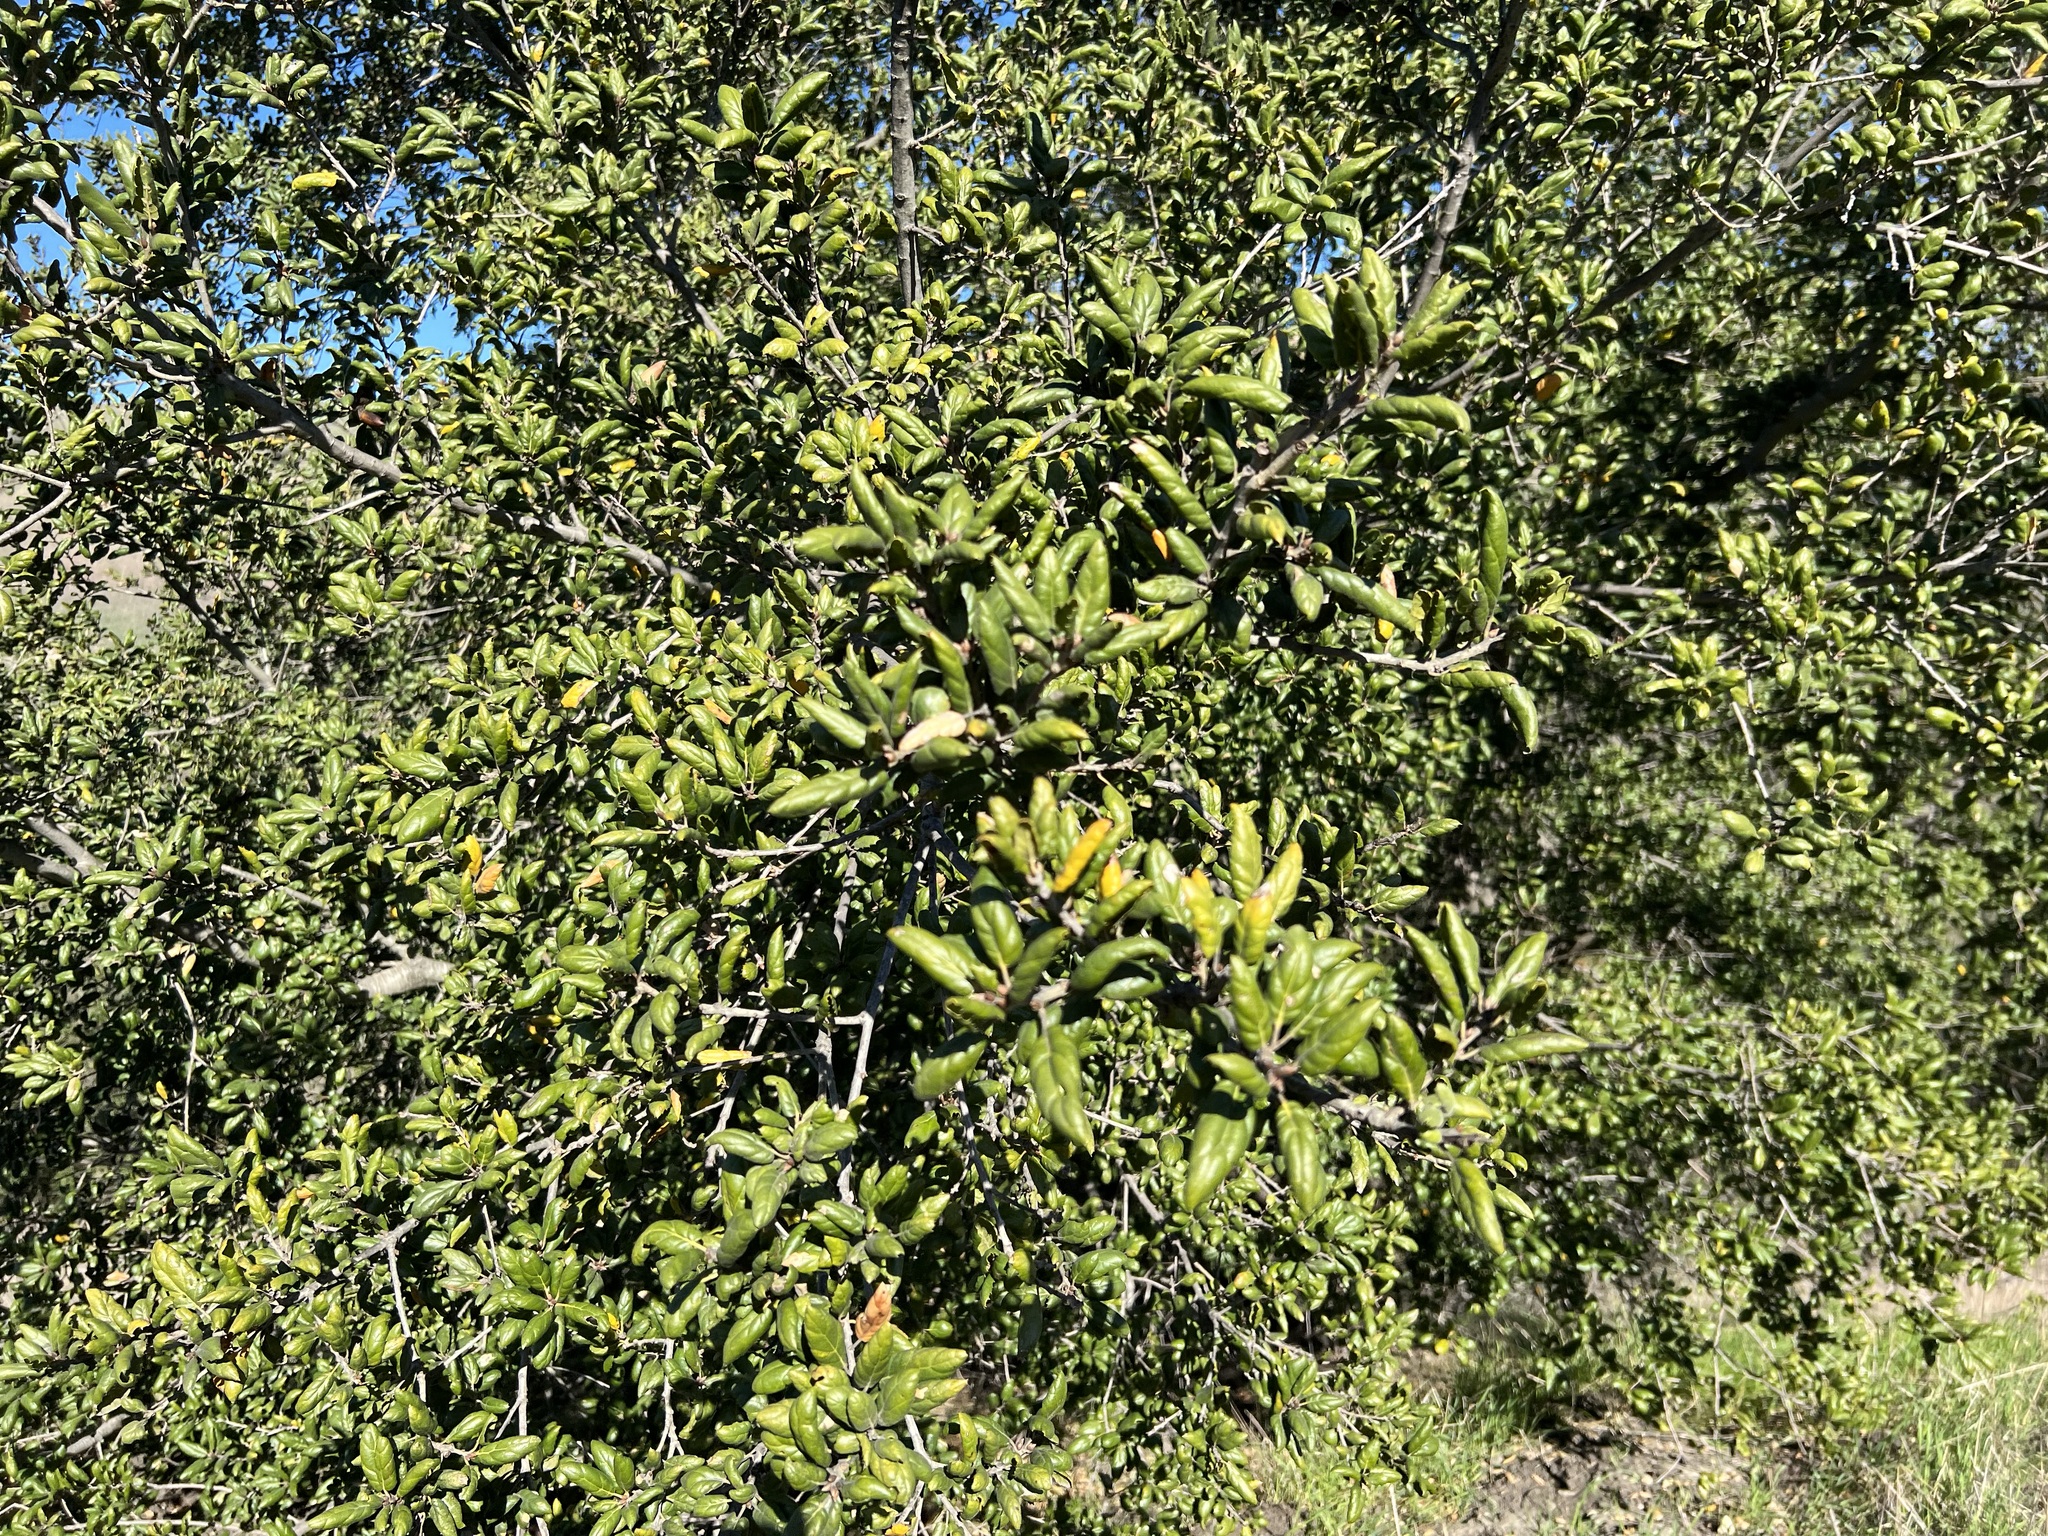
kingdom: Plantae
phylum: Tracheophyta
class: Magnoliopsida
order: Fagales
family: Fagaceae
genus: Quercus
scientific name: Quercus agrifolia
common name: California live oak
